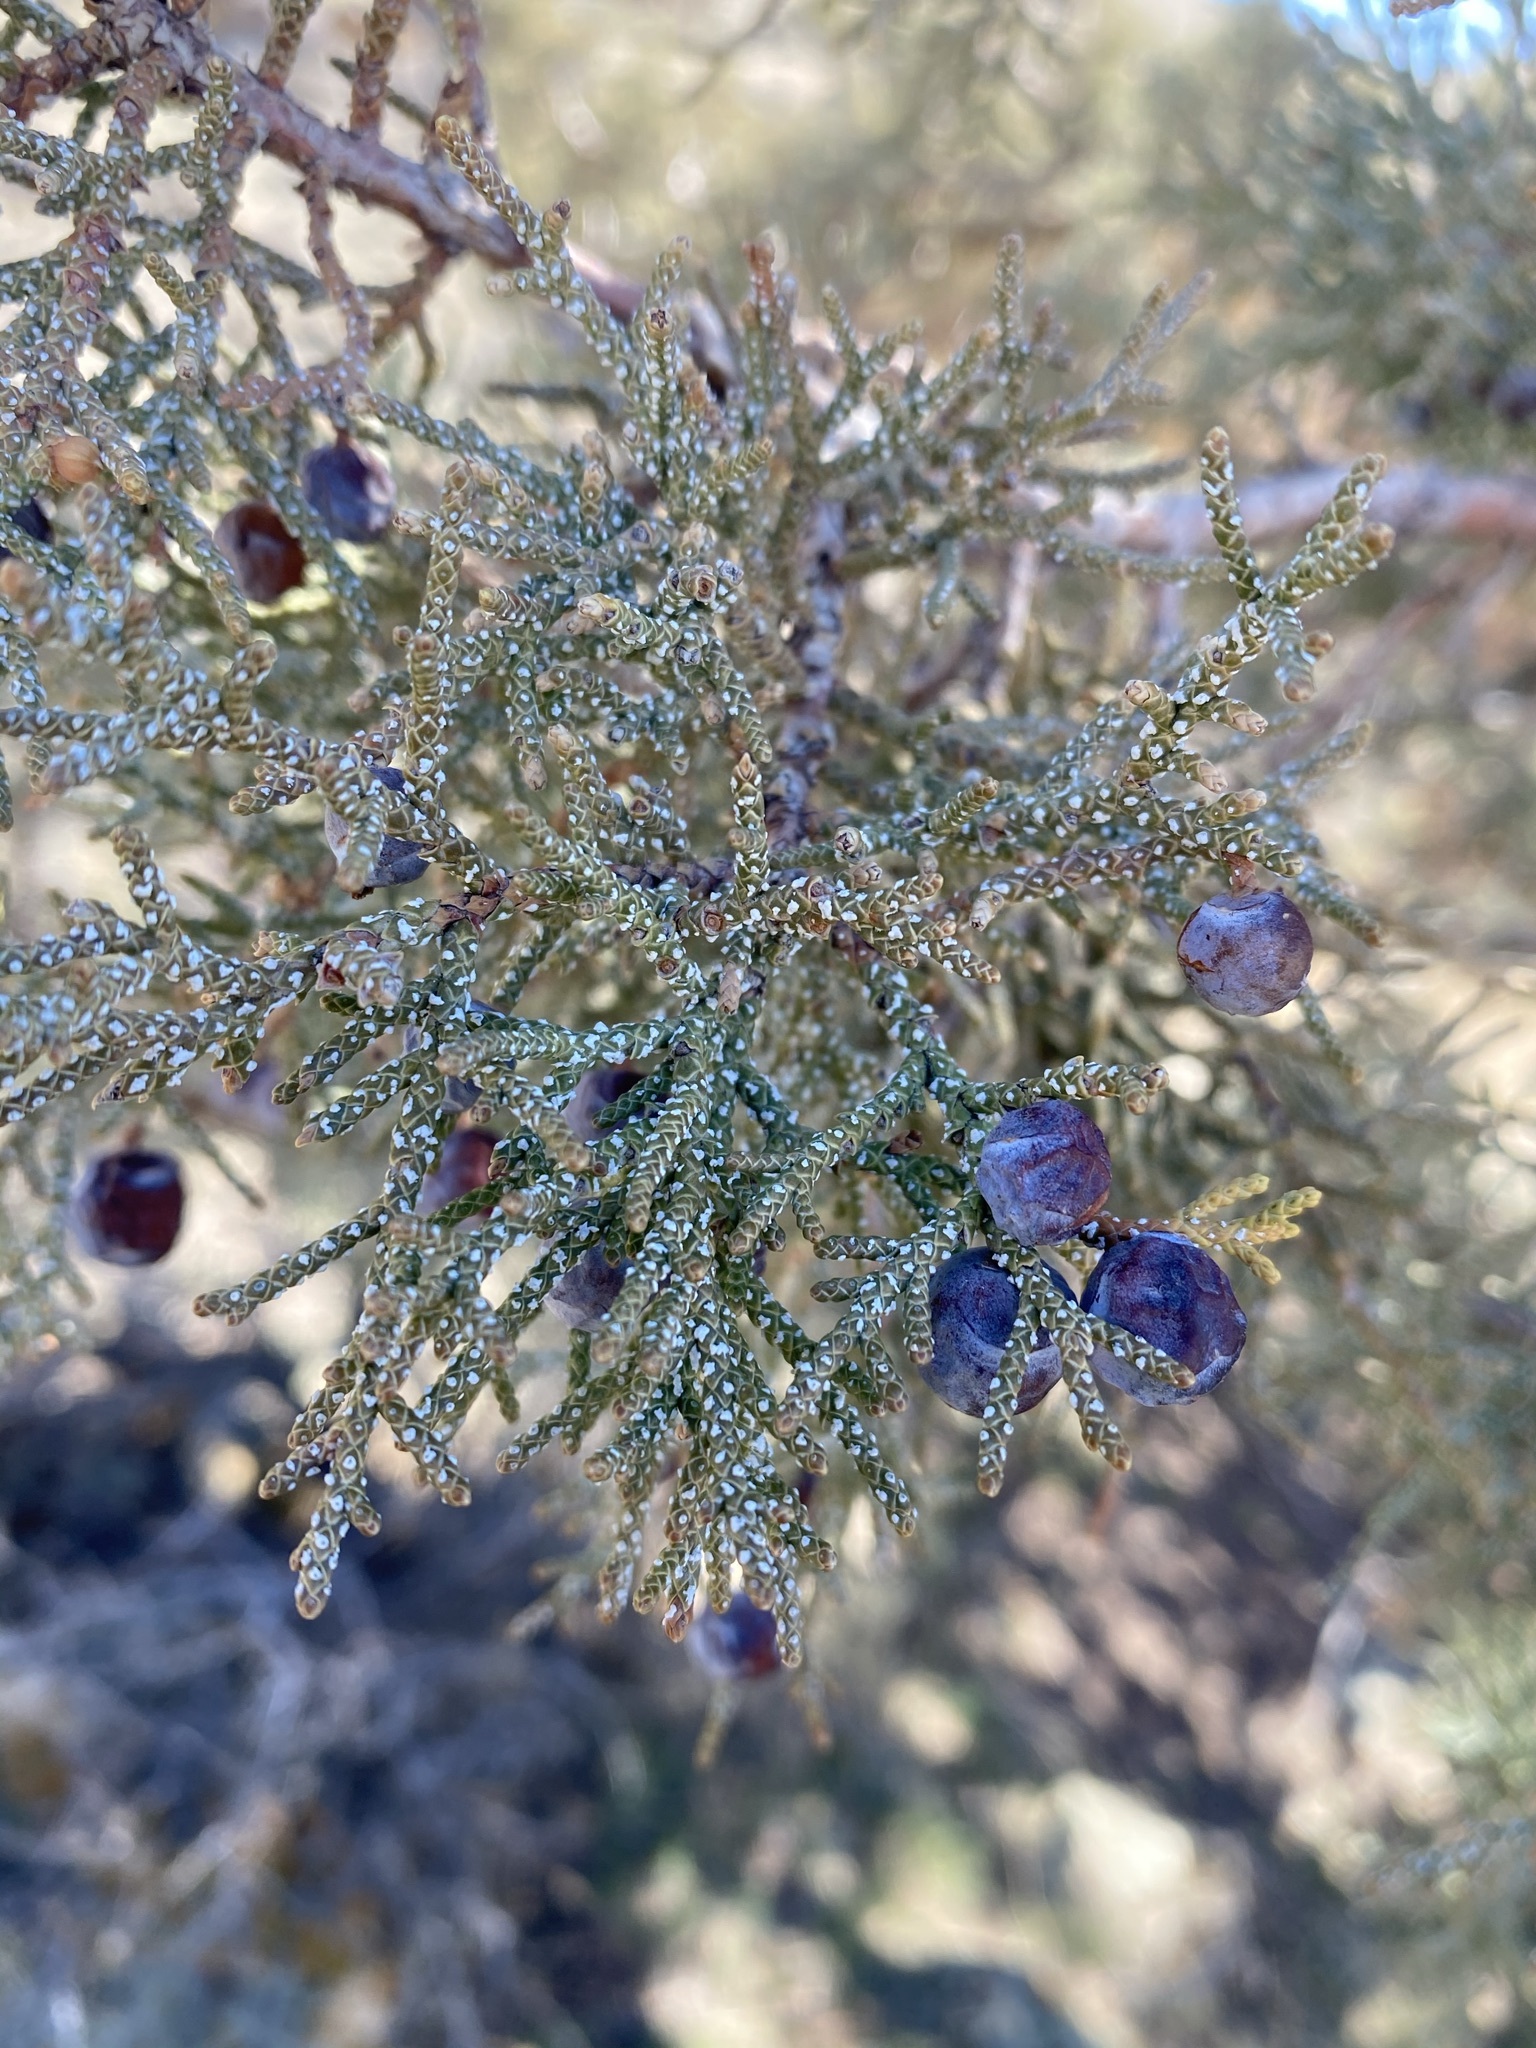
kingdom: Plantae
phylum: Tracheophyta
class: Pinopsida
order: Pinales
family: Cupressaceae
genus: Juniperus
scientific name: Juniperus occidentalis
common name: Western juniper
